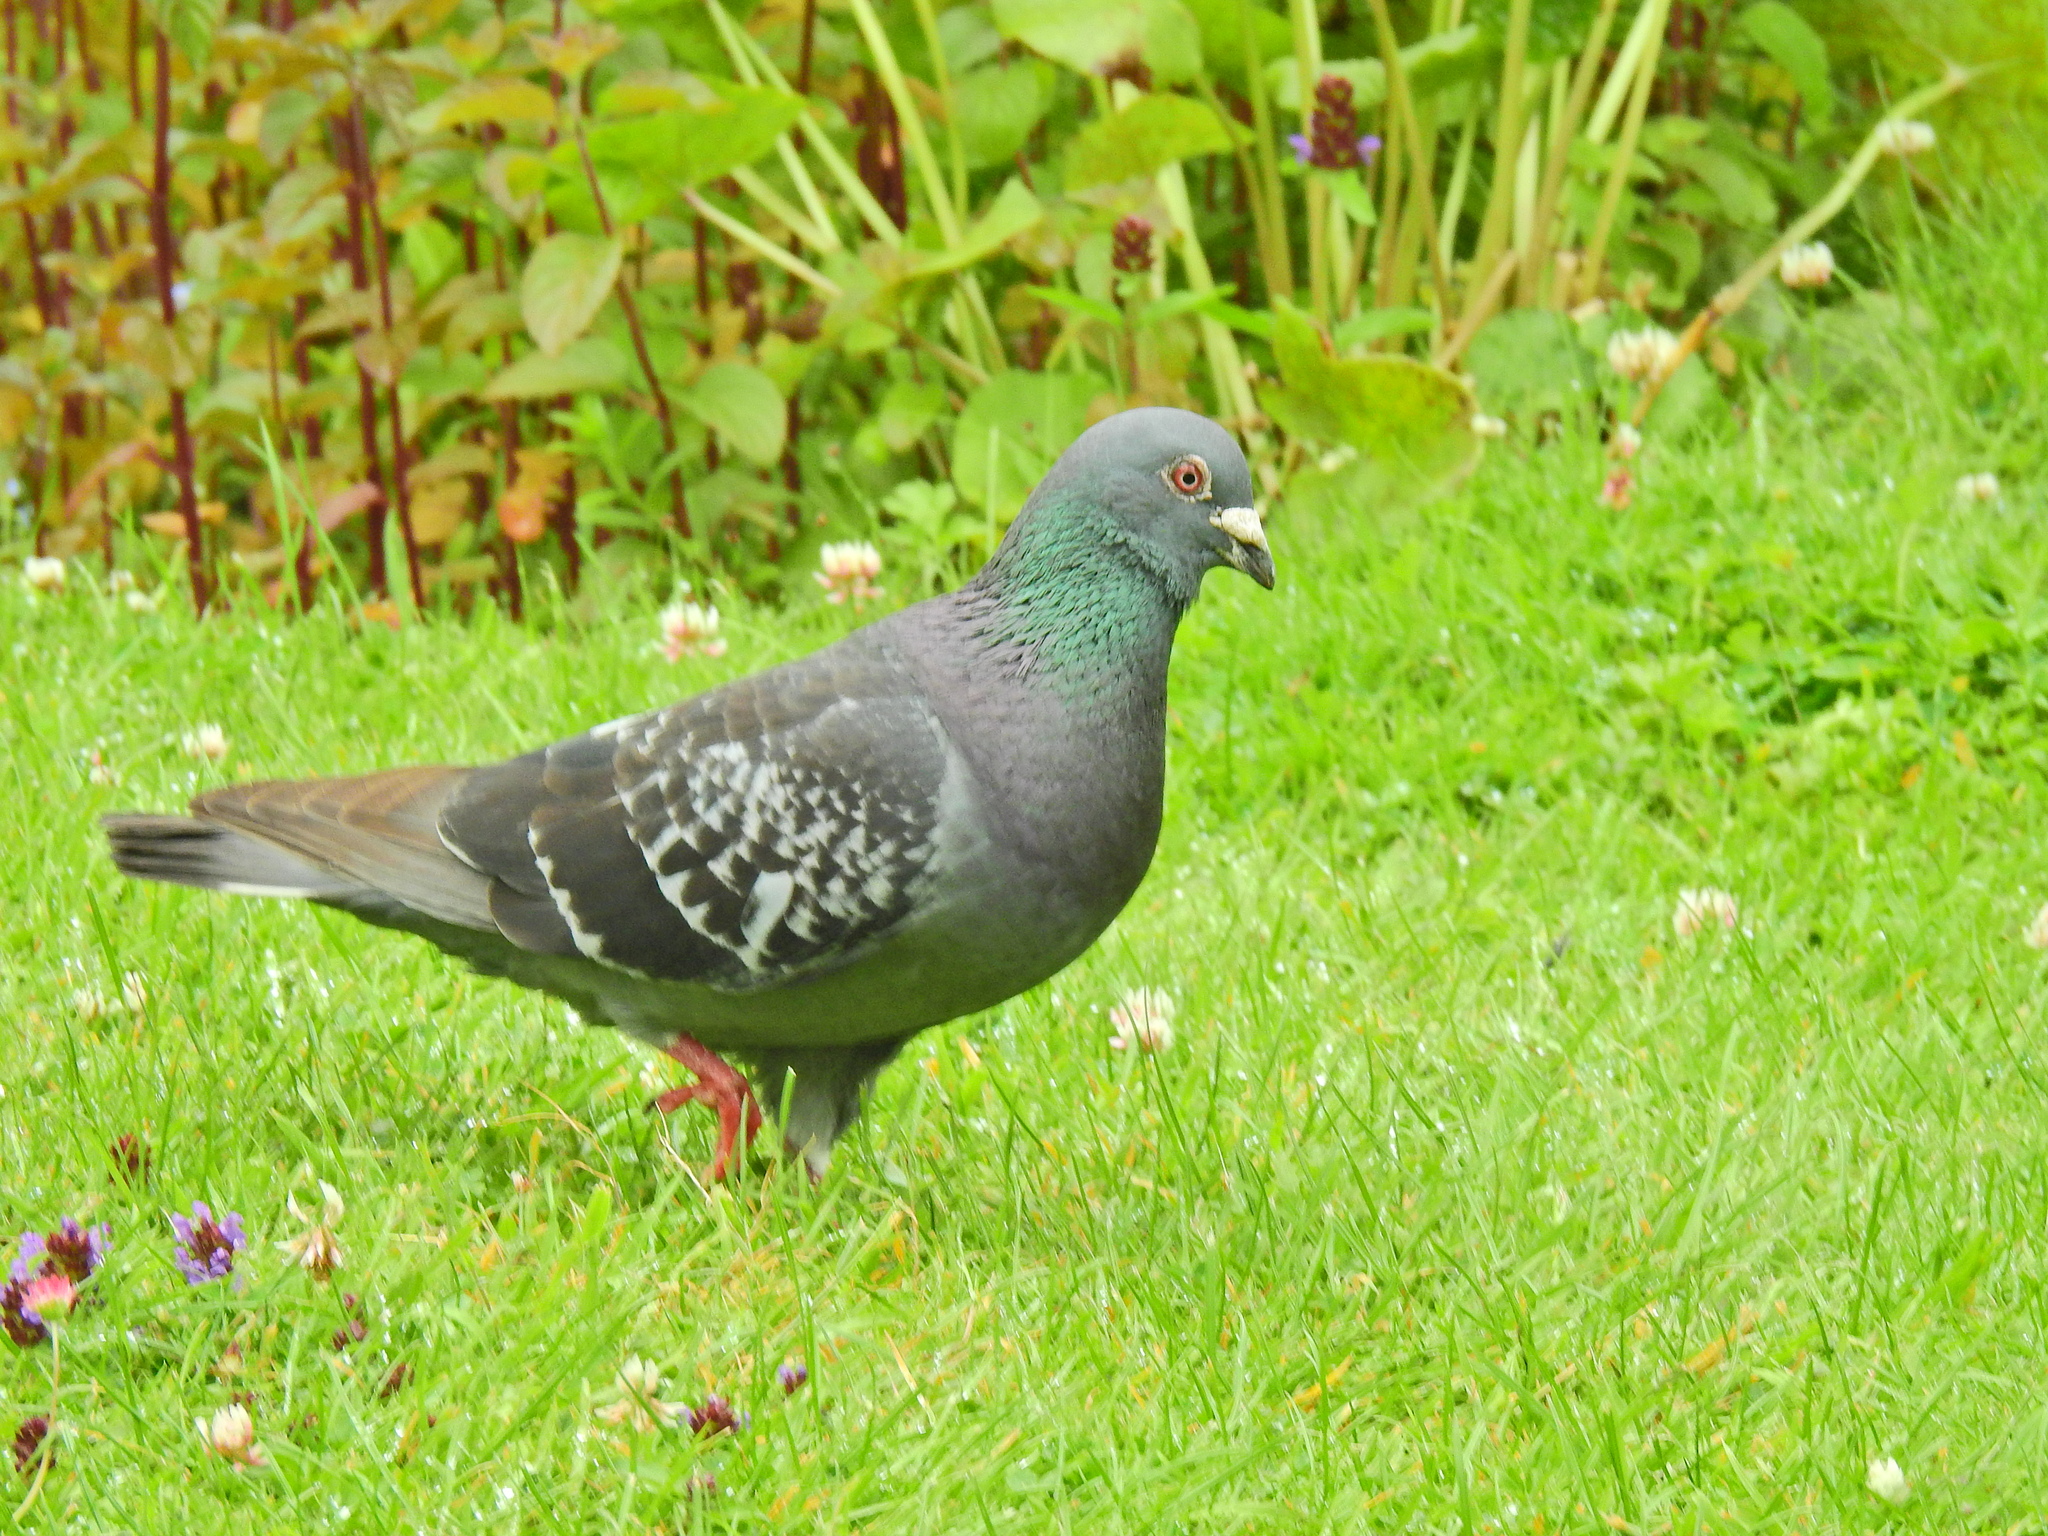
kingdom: Animalia
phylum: Chordata
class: Aves
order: Columbiformes
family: Columbidae
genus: Columba
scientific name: Columba livia
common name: Rock pigeon
